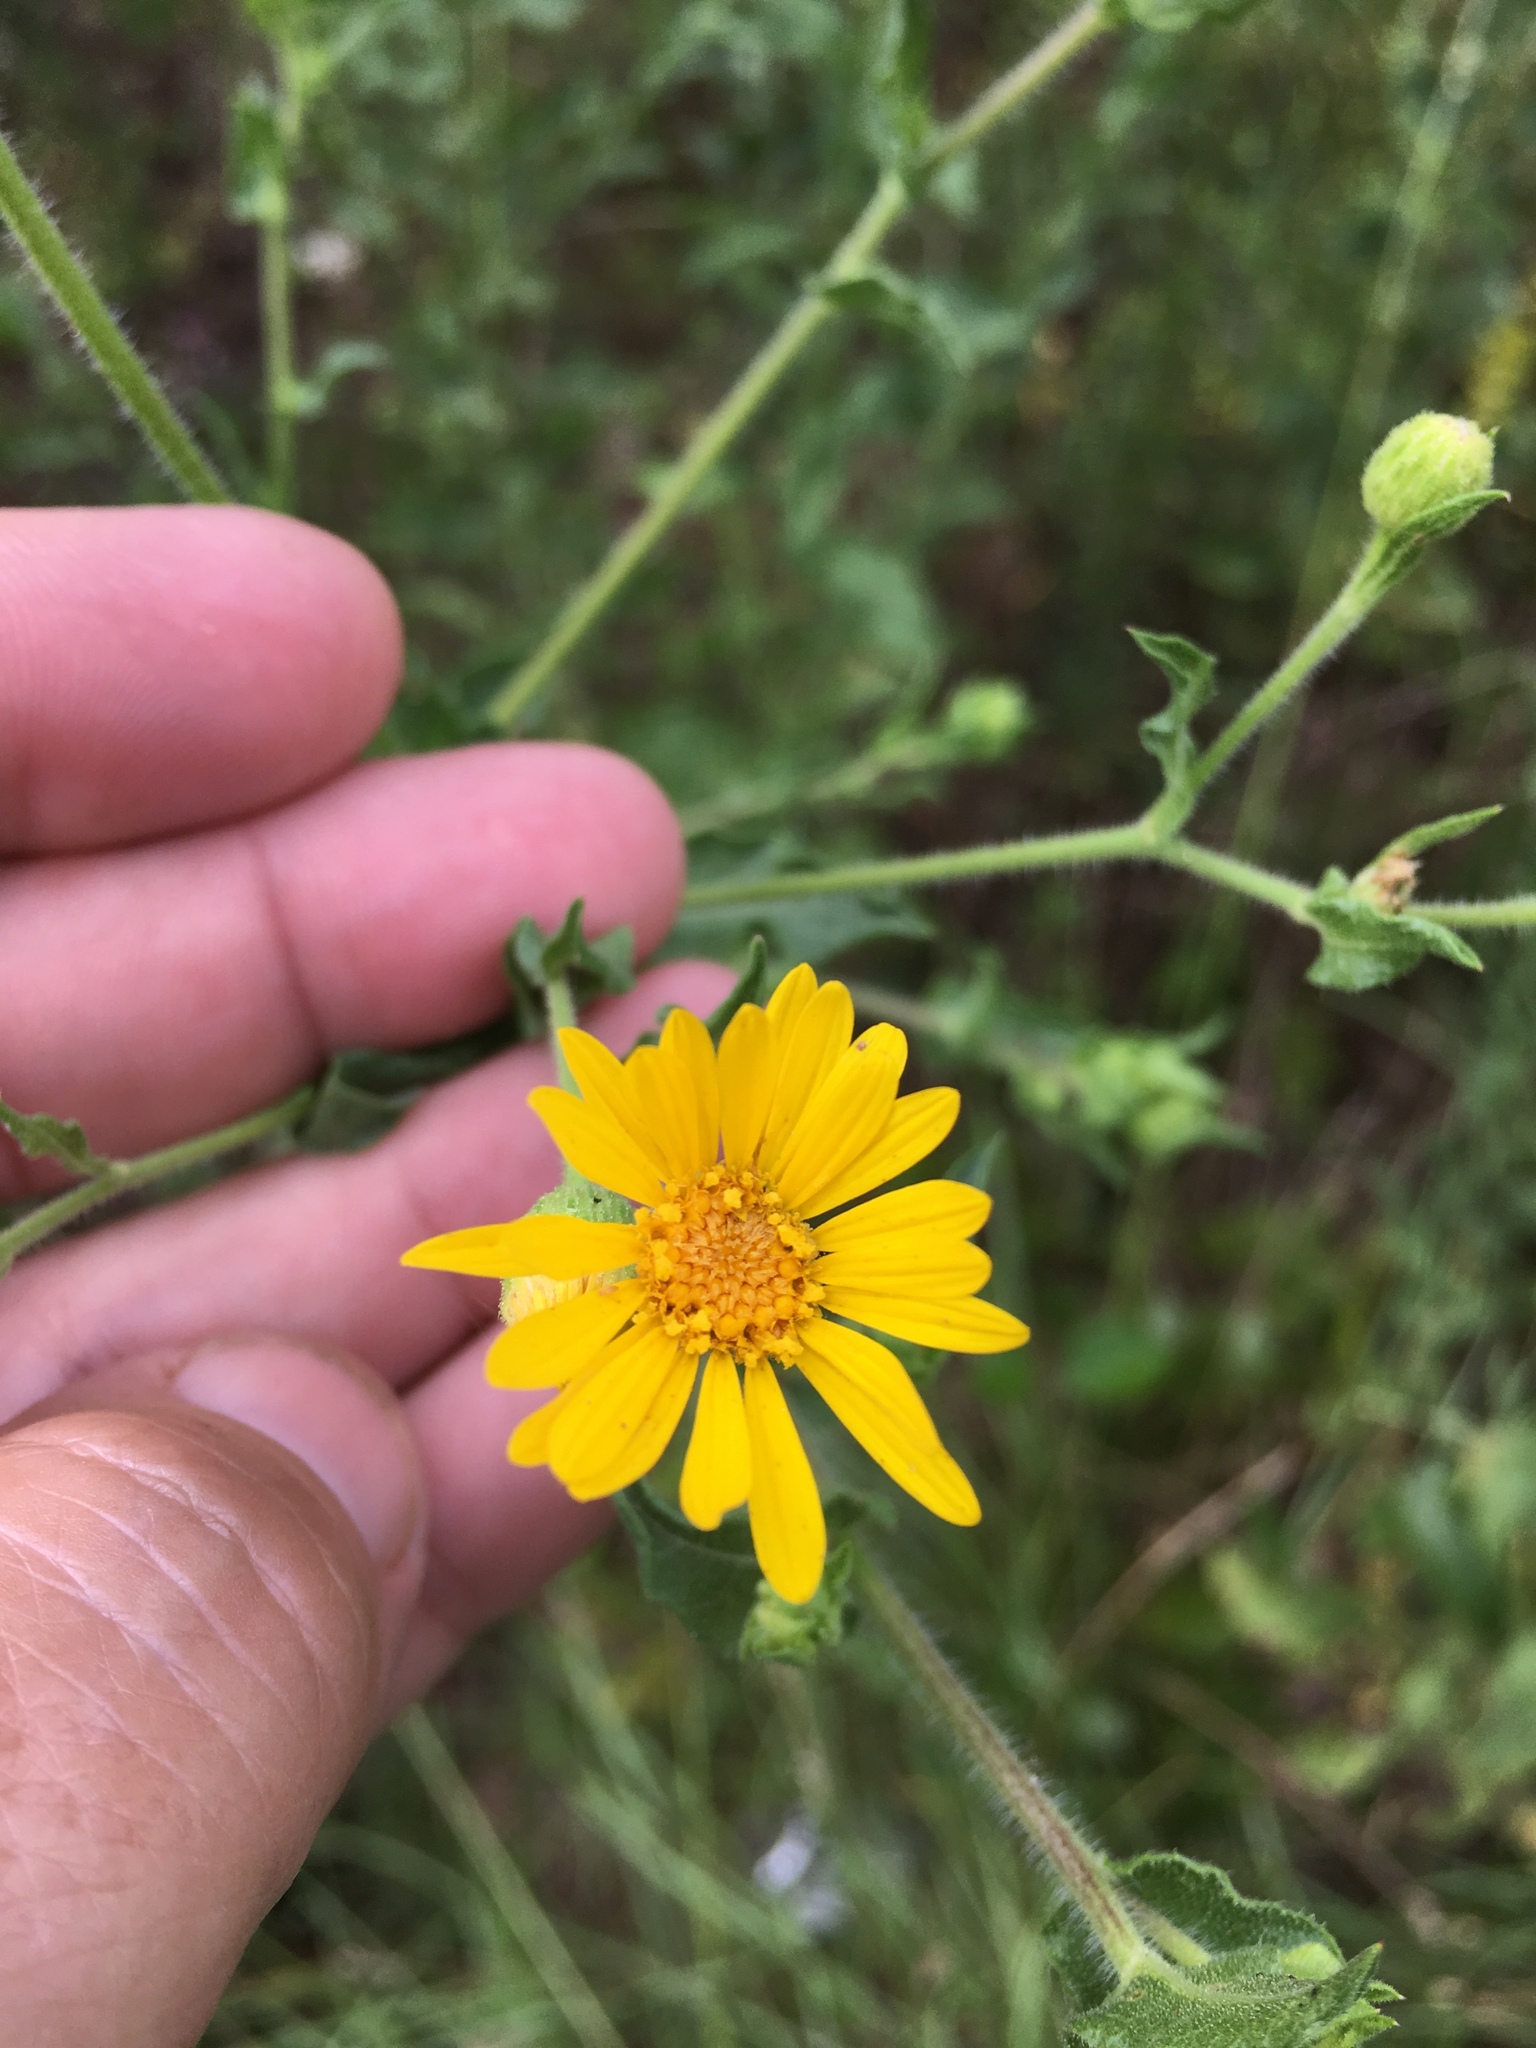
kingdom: Plantae
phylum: Tracheophyta
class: Magnoliopsida
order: Asterales
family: Asteraceae
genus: Heterotheca
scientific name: Heterotheca subaxillaris
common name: Camphorweed
